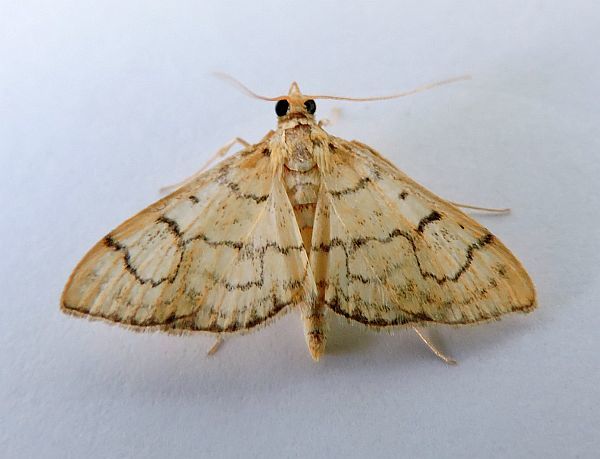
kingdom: Animalia
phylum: Arthropoda
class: Insecta
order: Lepidoptera
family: Crambidae
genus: Anania
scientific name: Anania labeculalis
